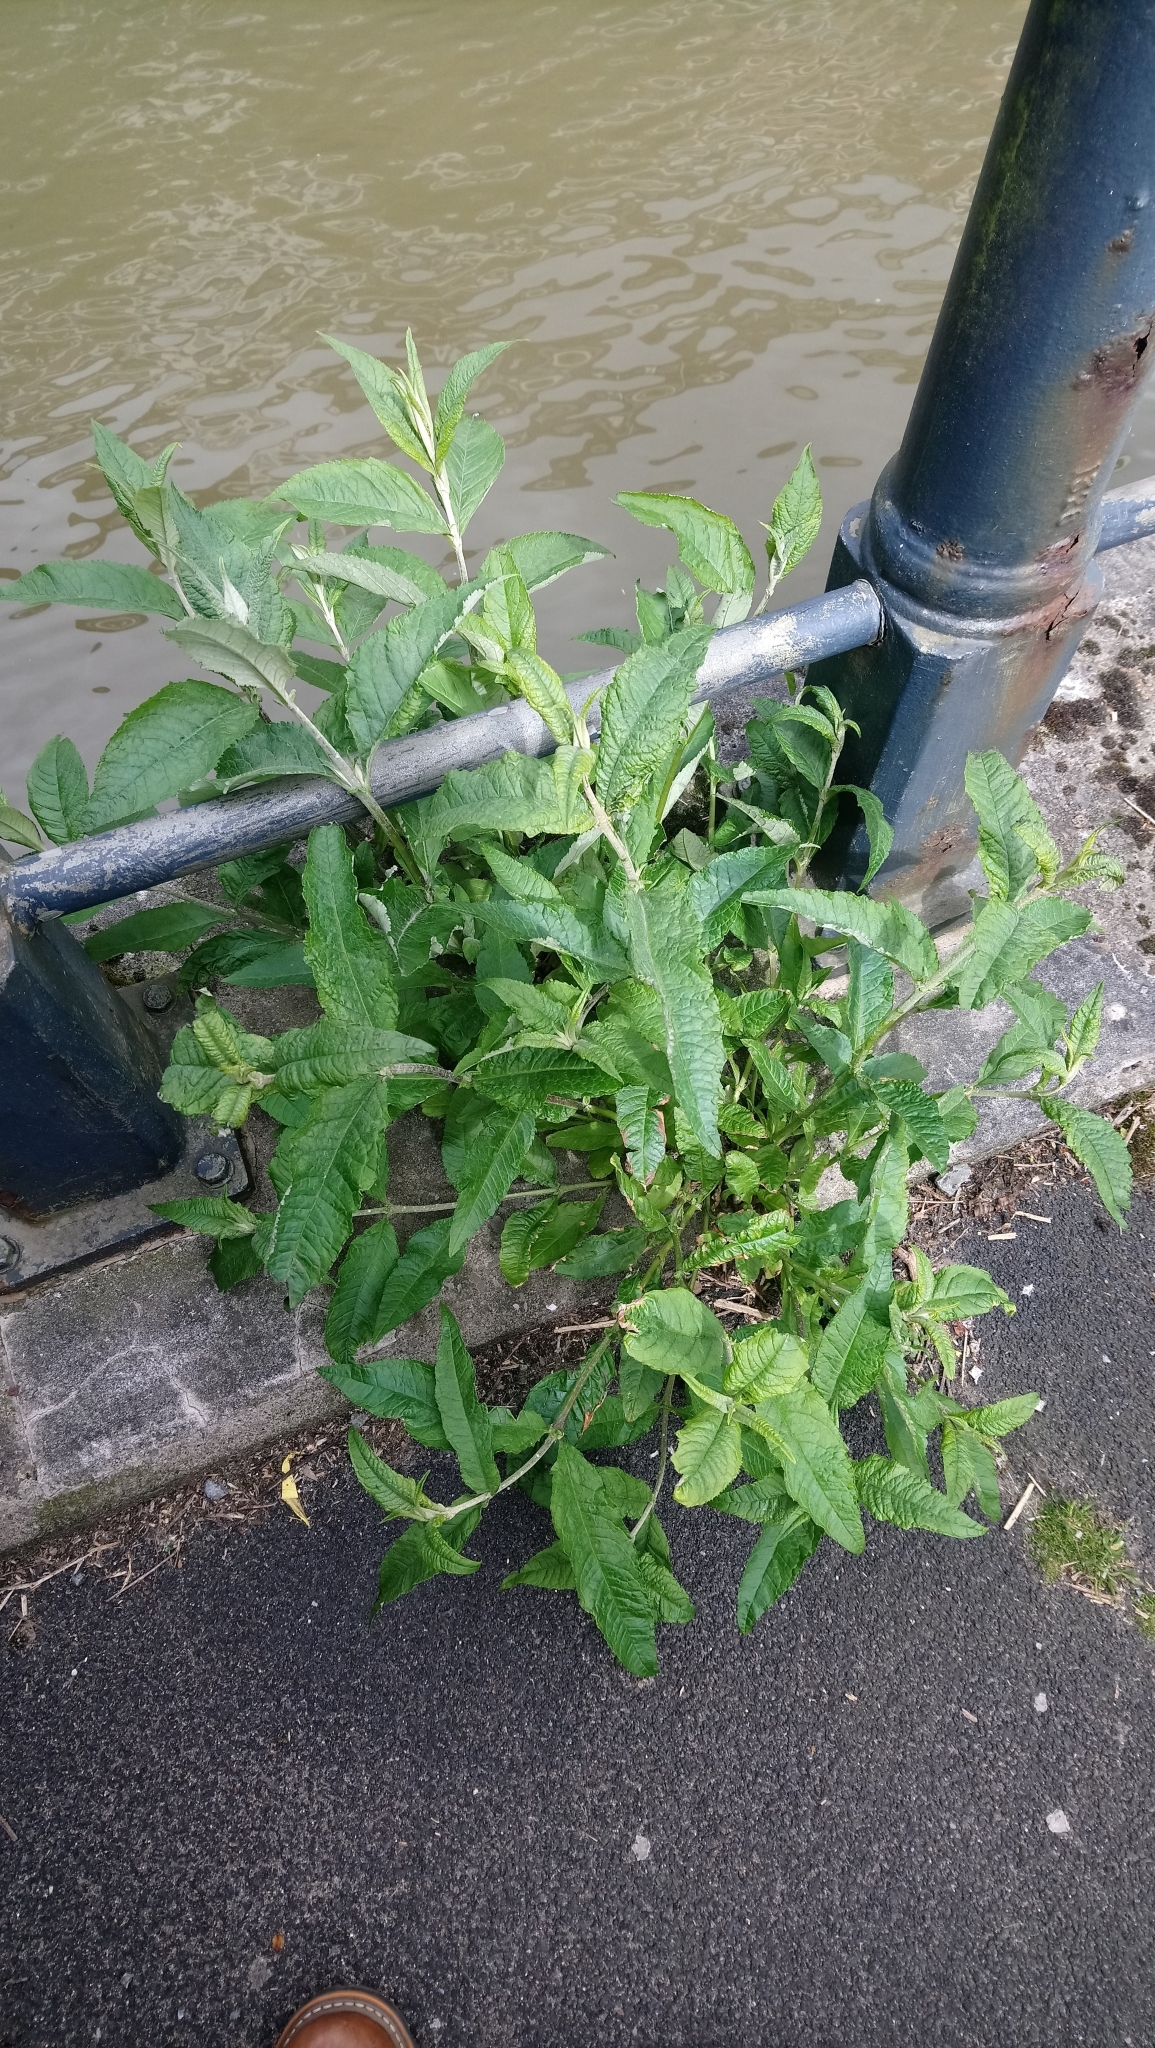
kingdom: Plantae
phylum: Tracheophyta
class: Magnoliopsida
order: Lamiales
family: Scrophulariaceae
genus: Buddleja
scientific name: Buddleja davidii
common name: Butterfly-bush
